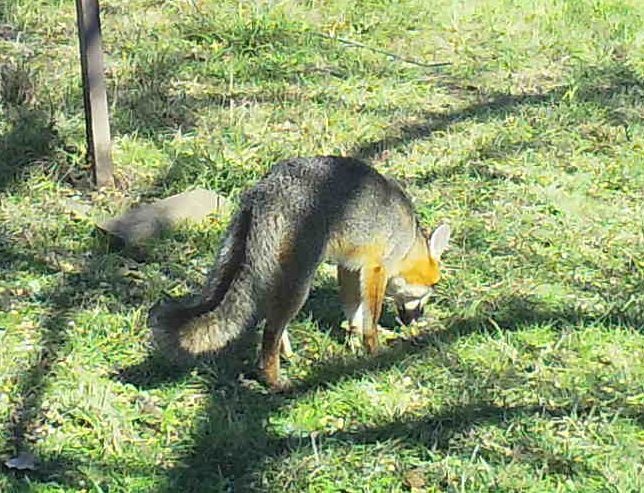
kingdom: Animalia
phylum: Chordata
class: Mammalia
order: Carnivora
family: Canidae
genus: Urocyon
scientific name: Urocyon cinereoargenteus
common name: Gray fox
